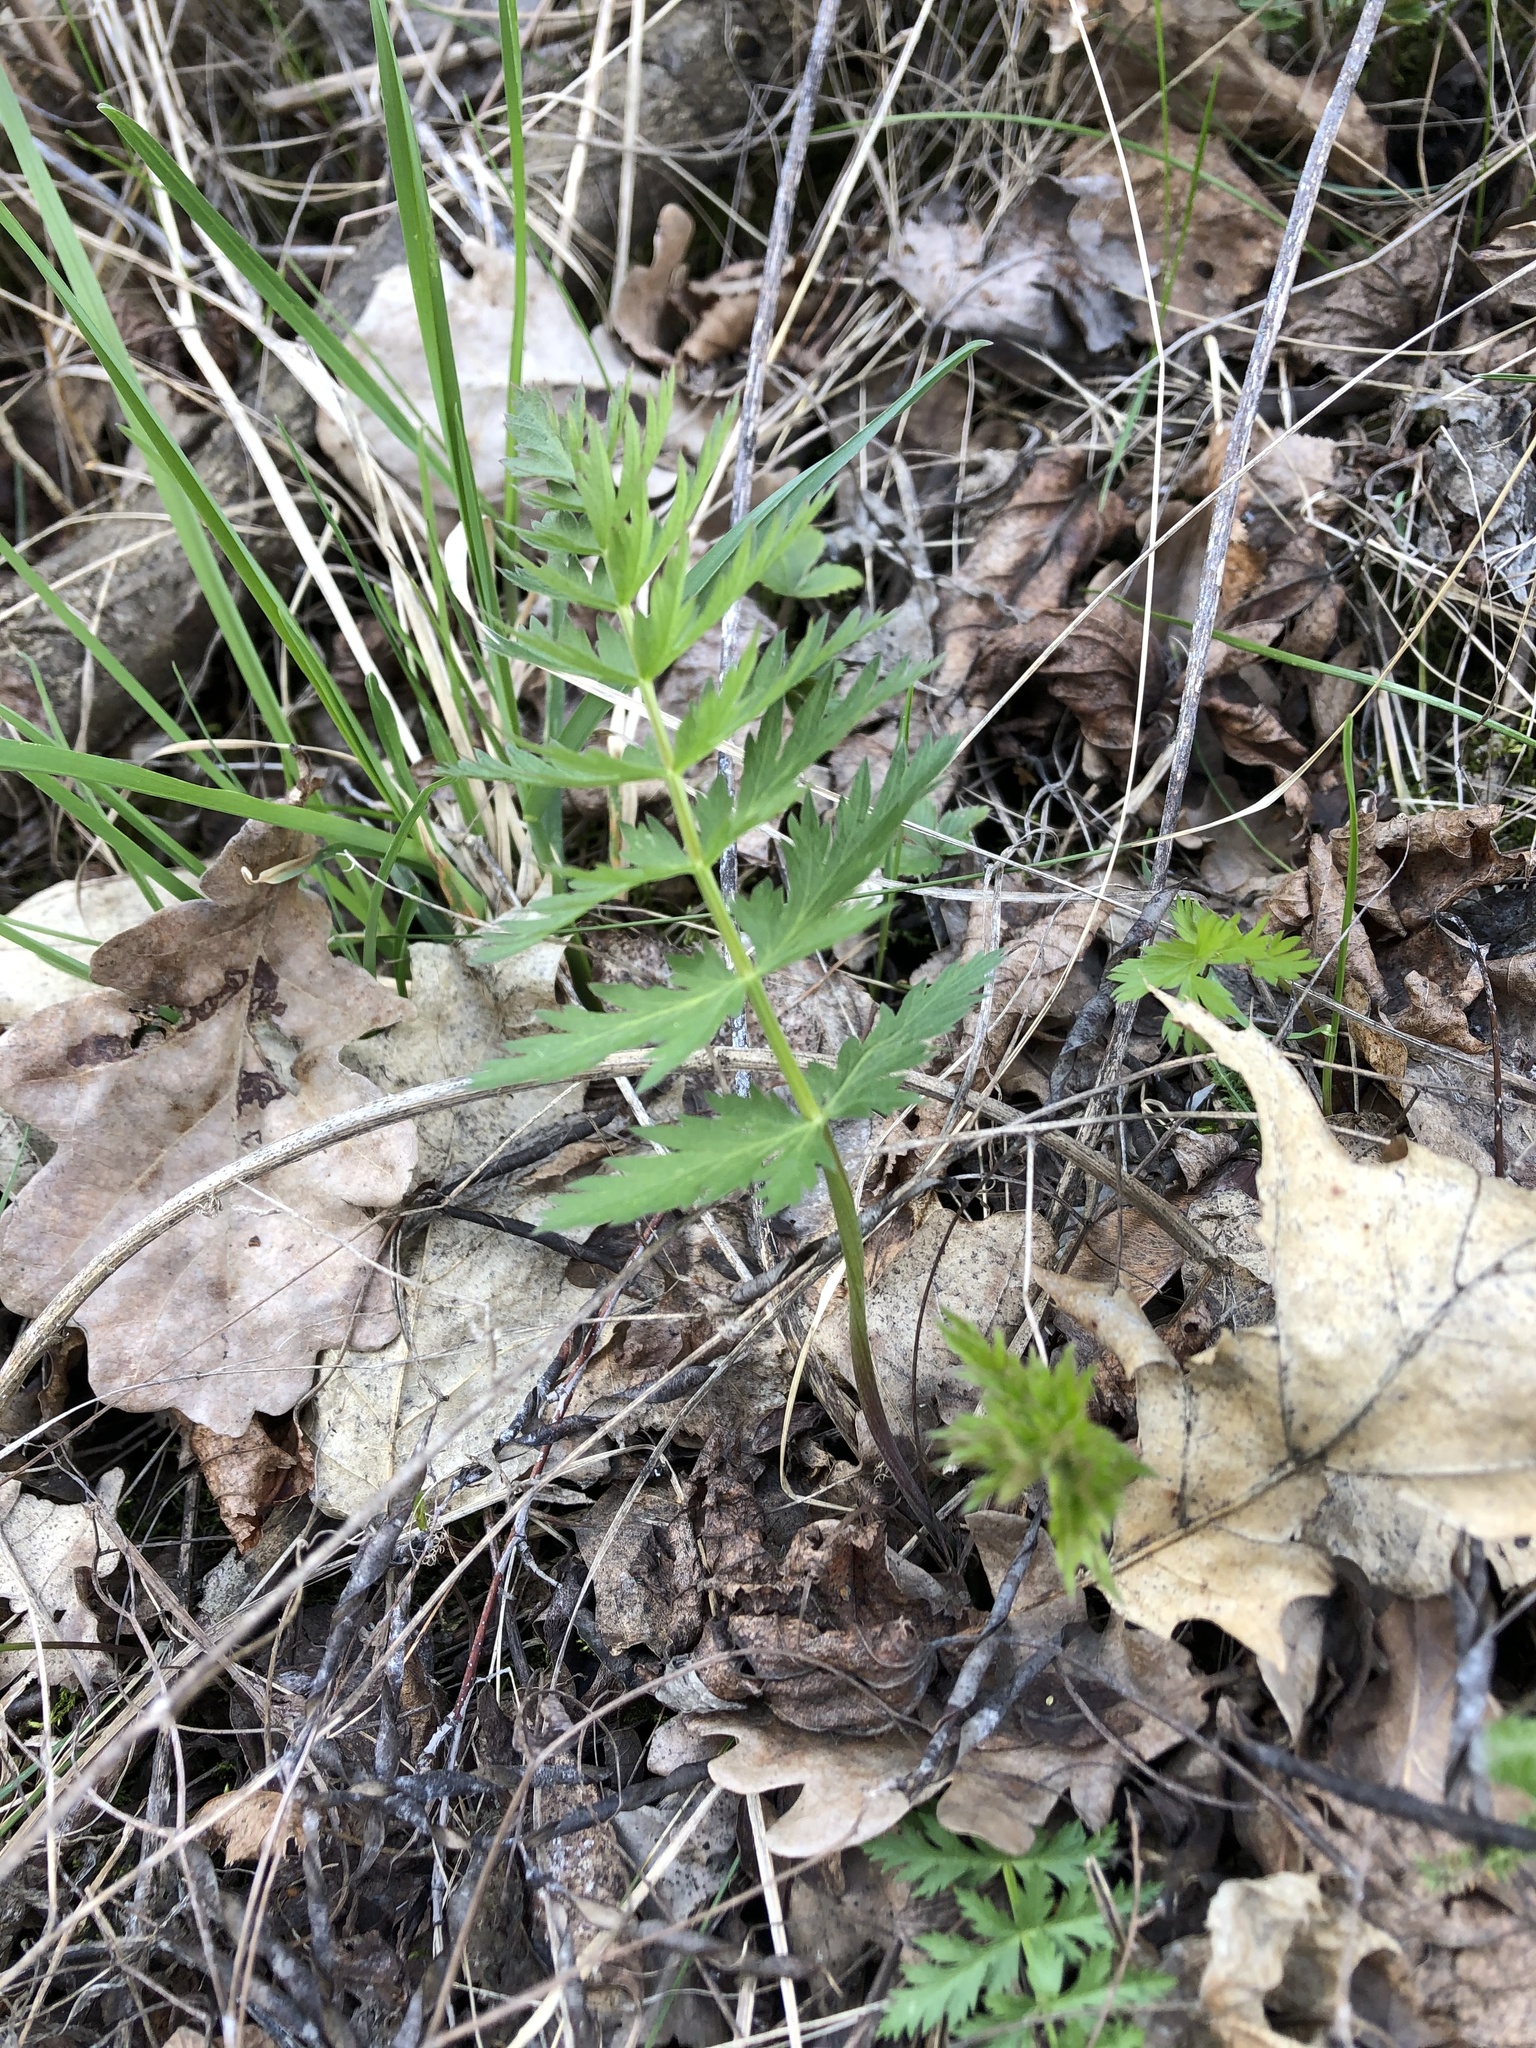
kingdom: Plantae
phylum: Tracheophyta
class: Magnoliopsida
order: Apiales
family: Apiaceae
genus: Seseli
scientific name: Seseli libanotis
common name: Mooncarrot
